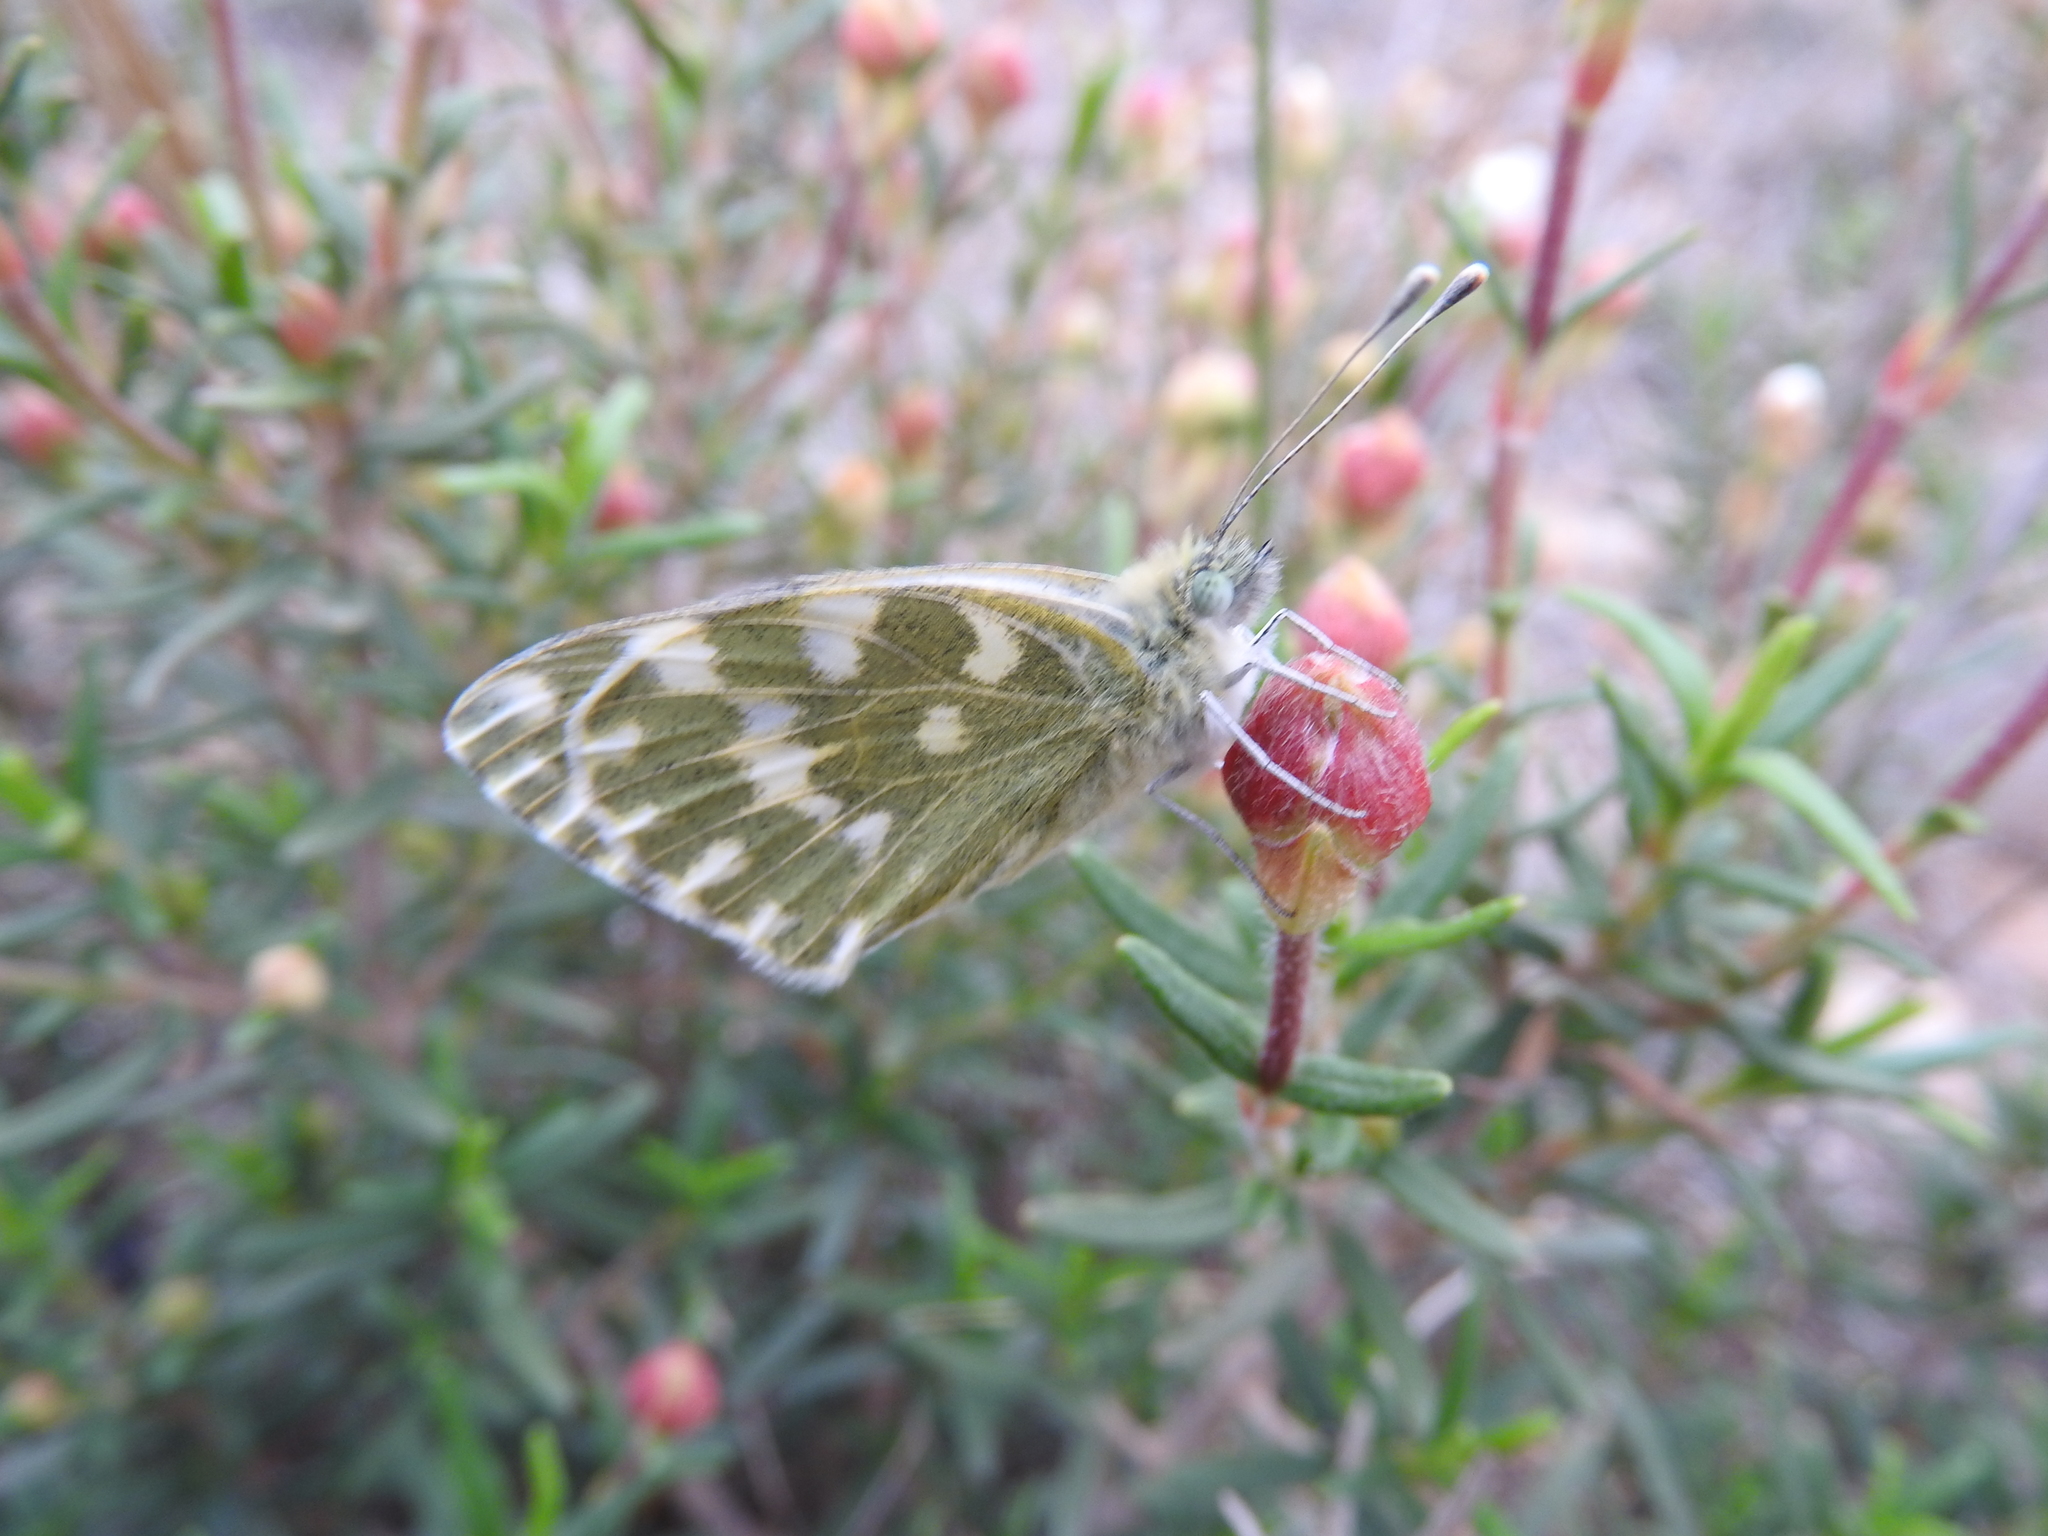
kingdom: Animalia
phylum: Arthropoda
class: Insecta
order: Lepidoptera
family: Pieridae
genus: Pontia
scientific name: Pontia daplidice
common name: Bath white
